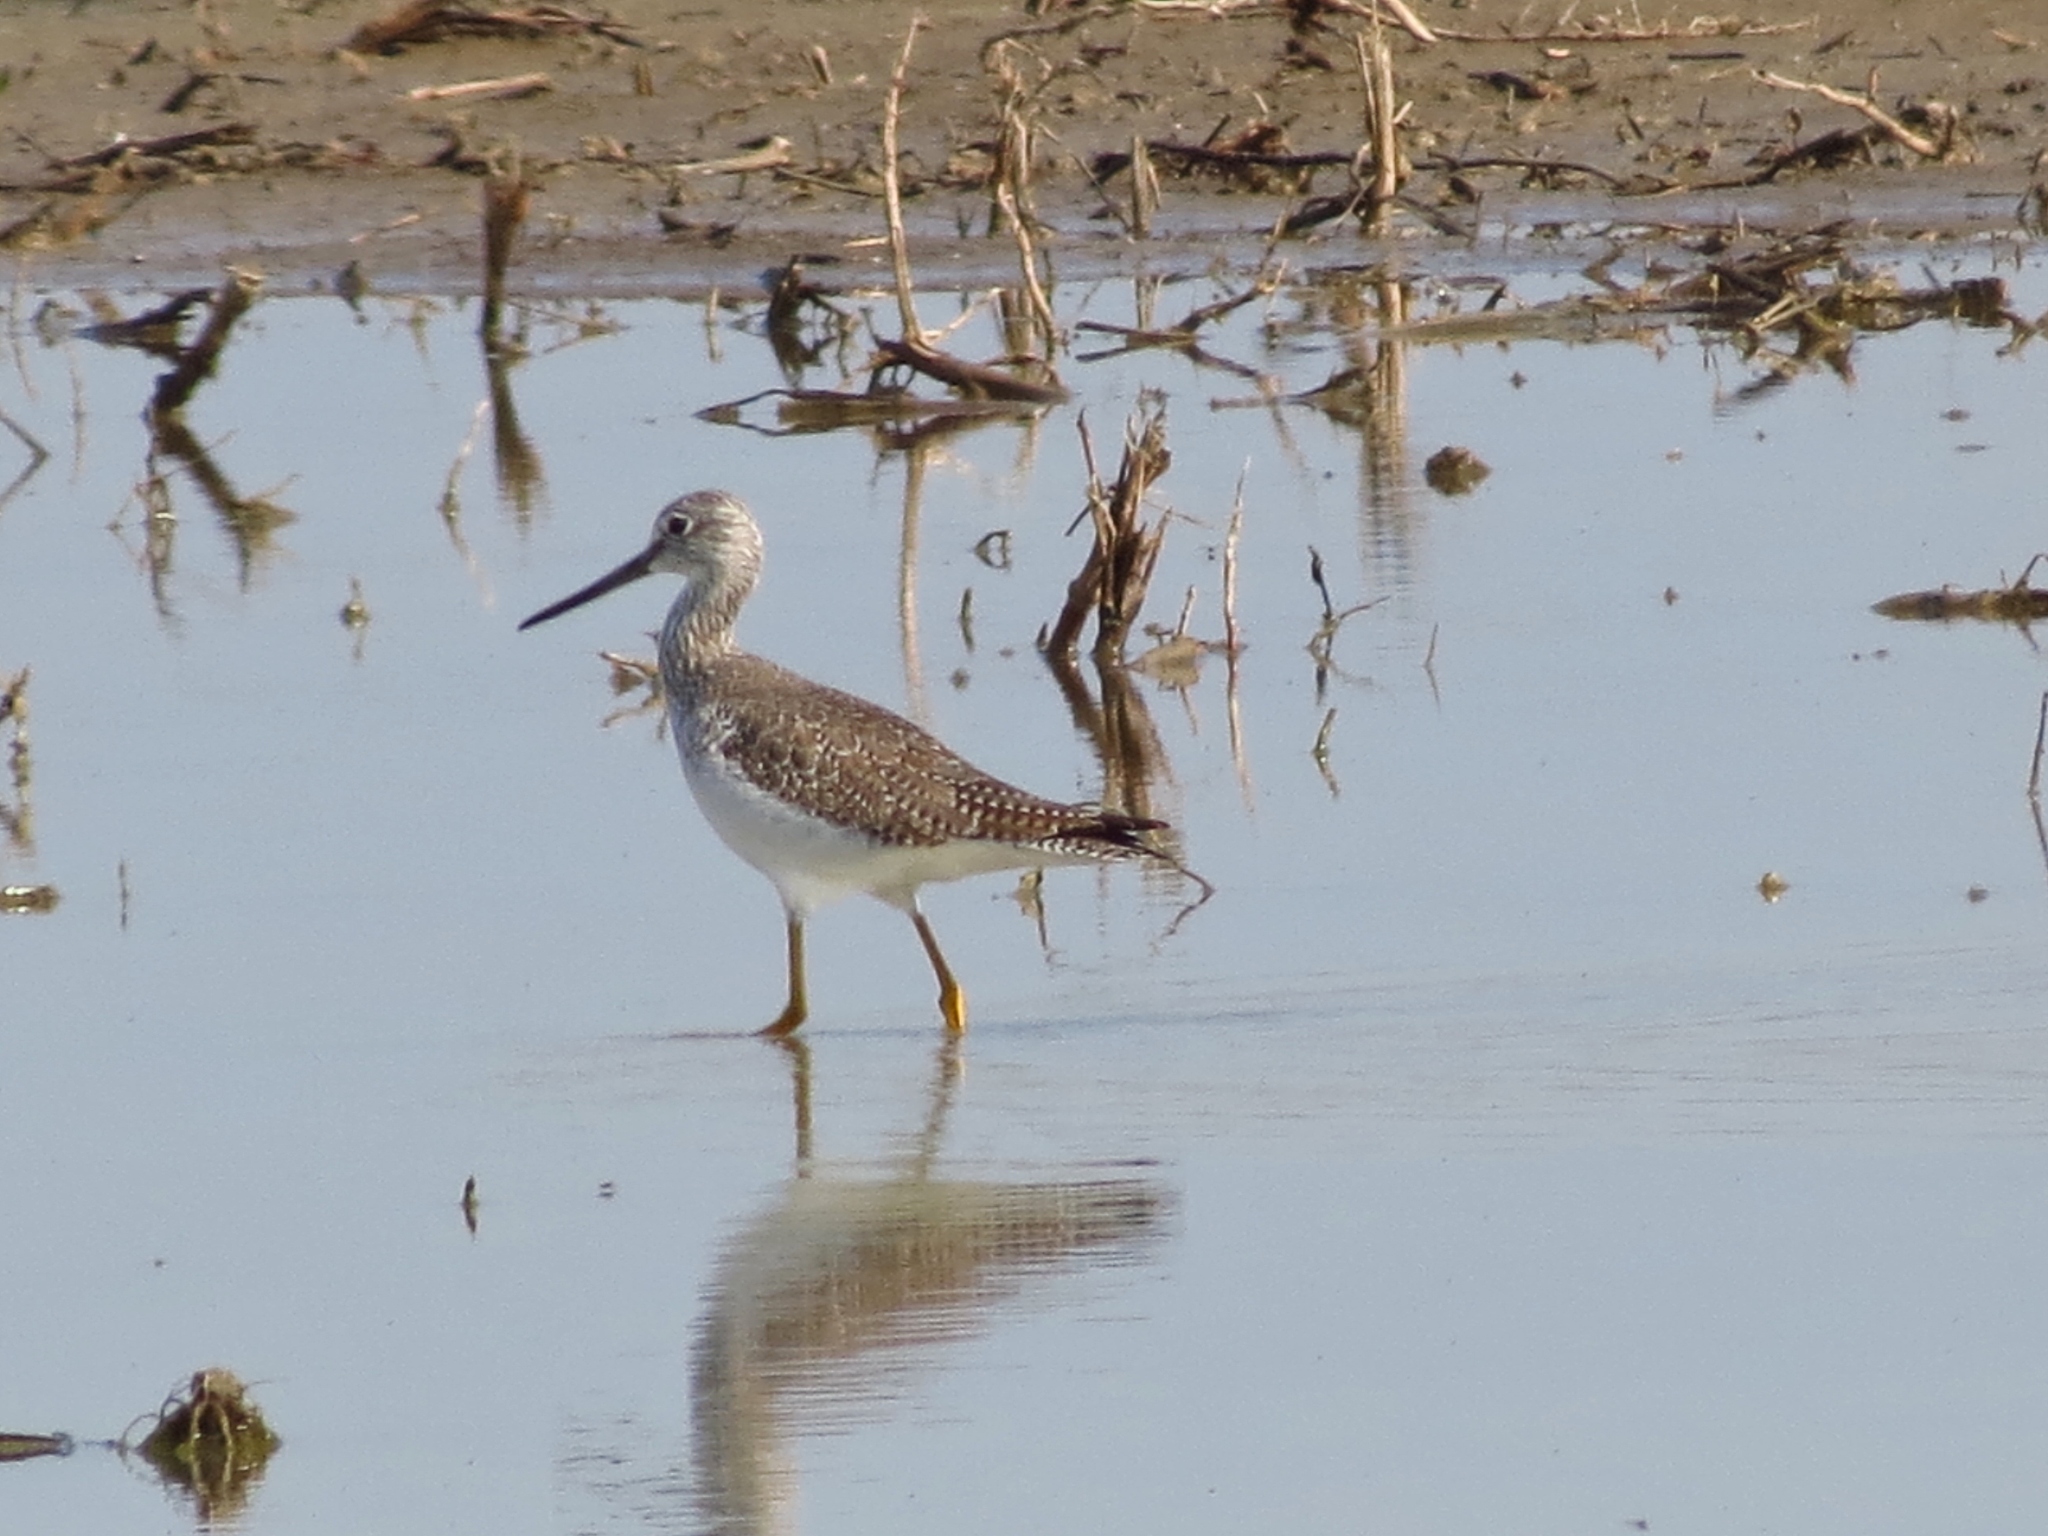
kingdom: Animalia
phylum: Chordata
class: Aves
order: Charadriiformes
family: Scolopacidae
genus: Tringa
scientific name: Tringa melanoleuca
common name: Greater yellowlegs
